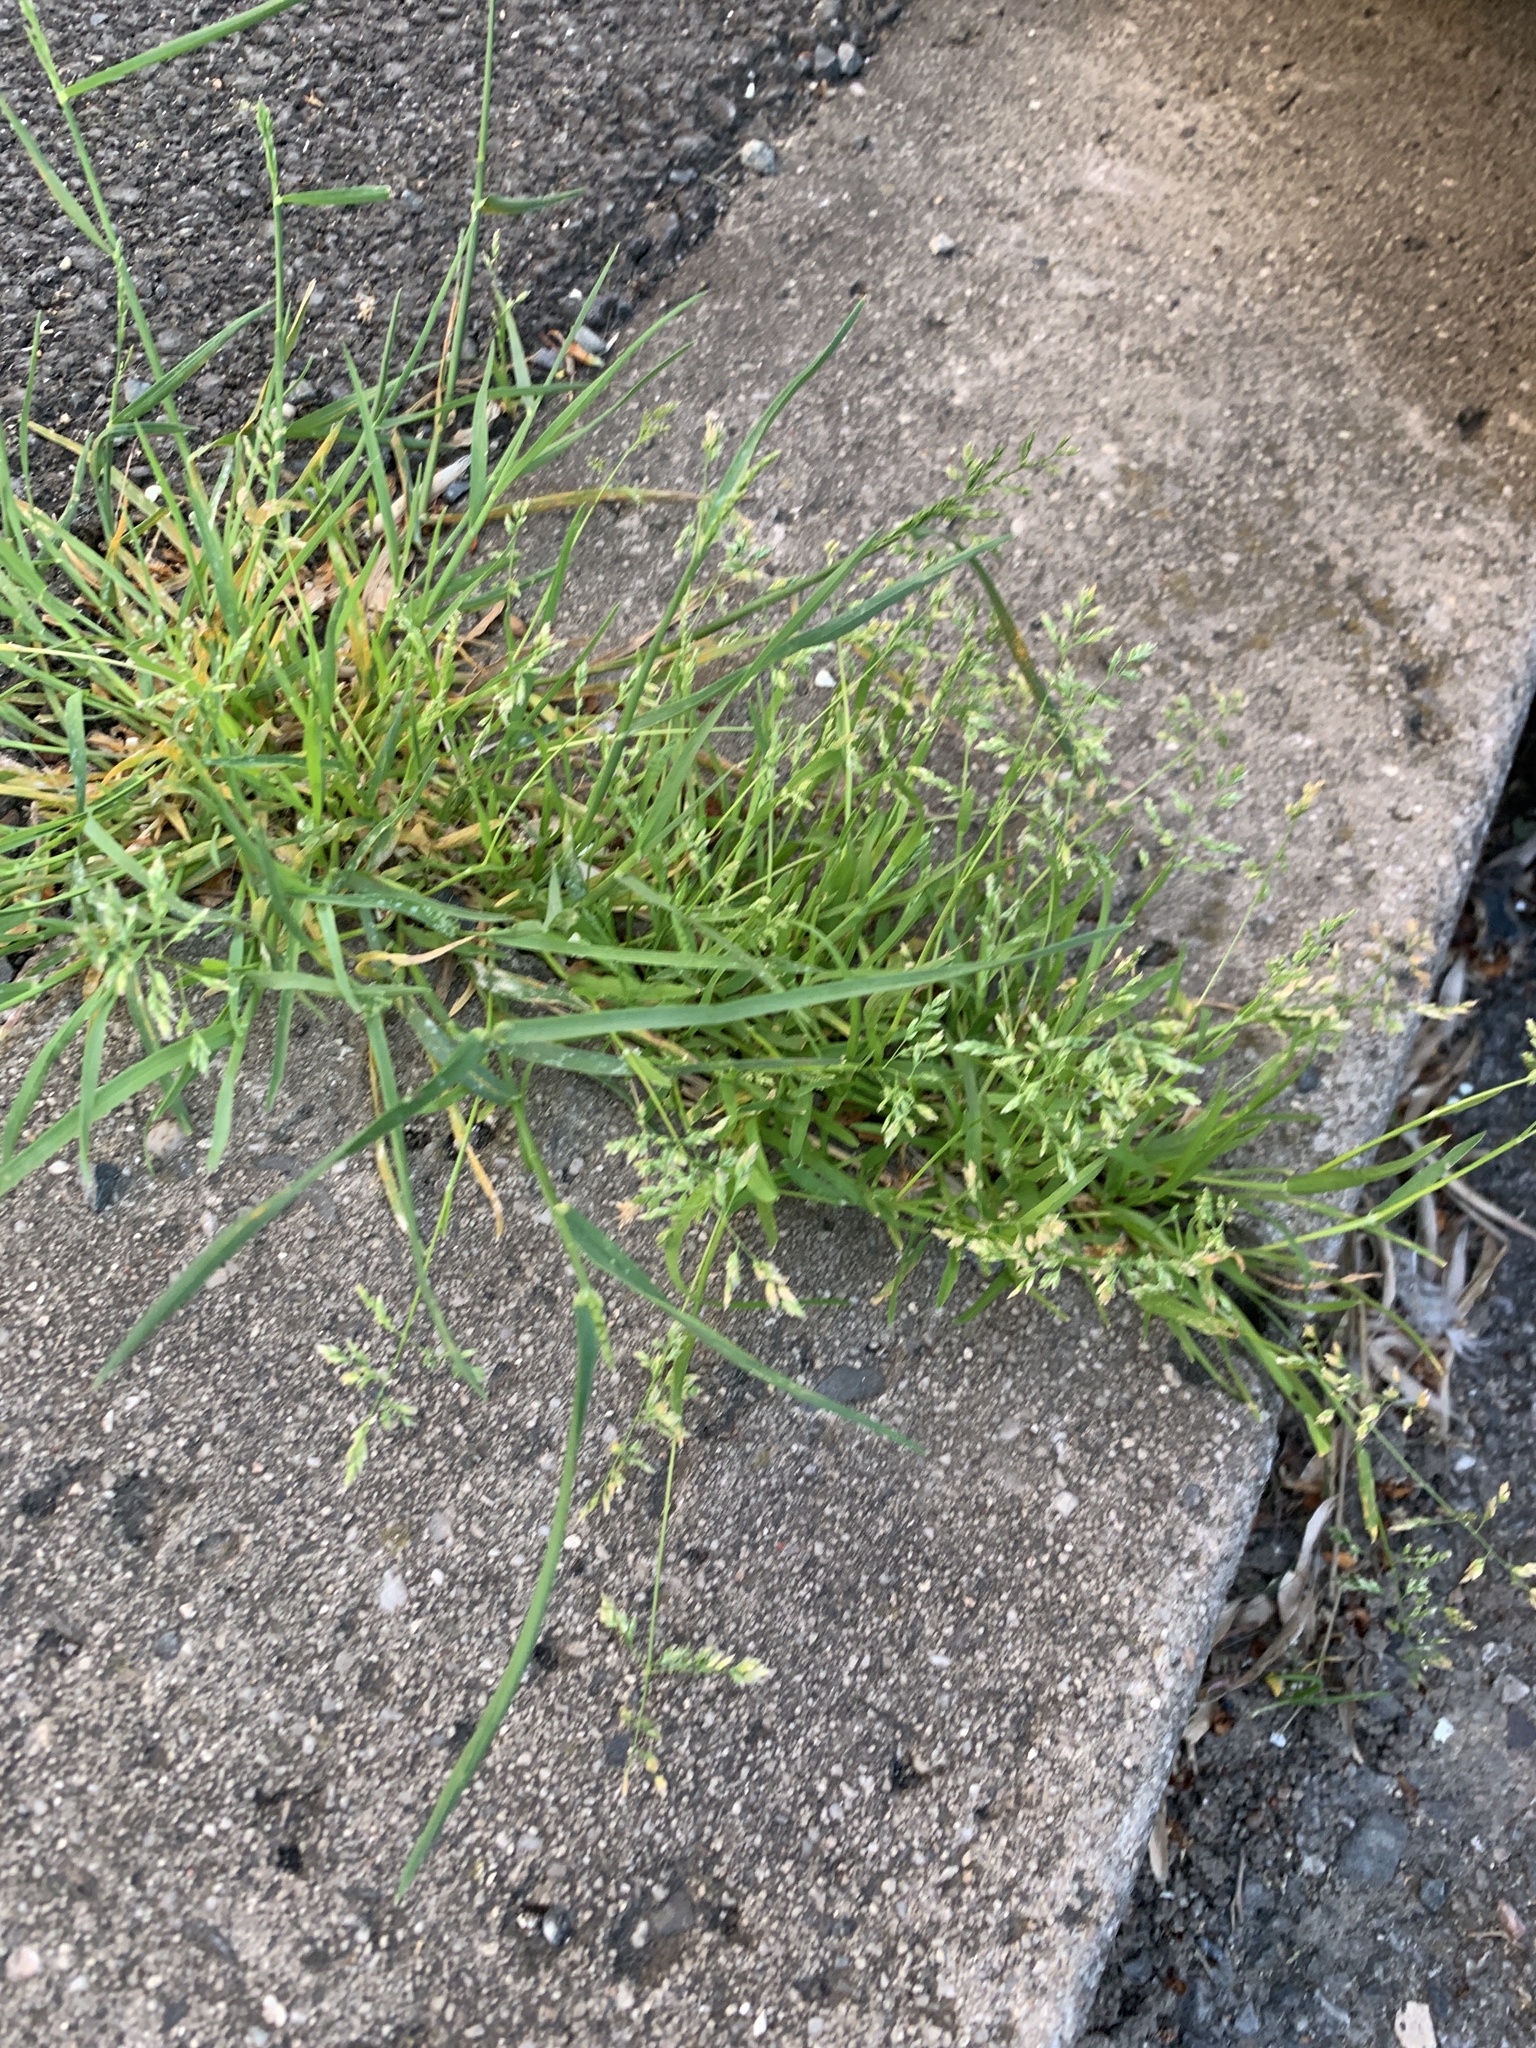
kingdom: Plantae
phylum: Tracheophyta
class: Liliopsida
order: Poales
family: Poaceae
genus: Poa
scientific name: Poa annua
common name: Annual bluegrass
